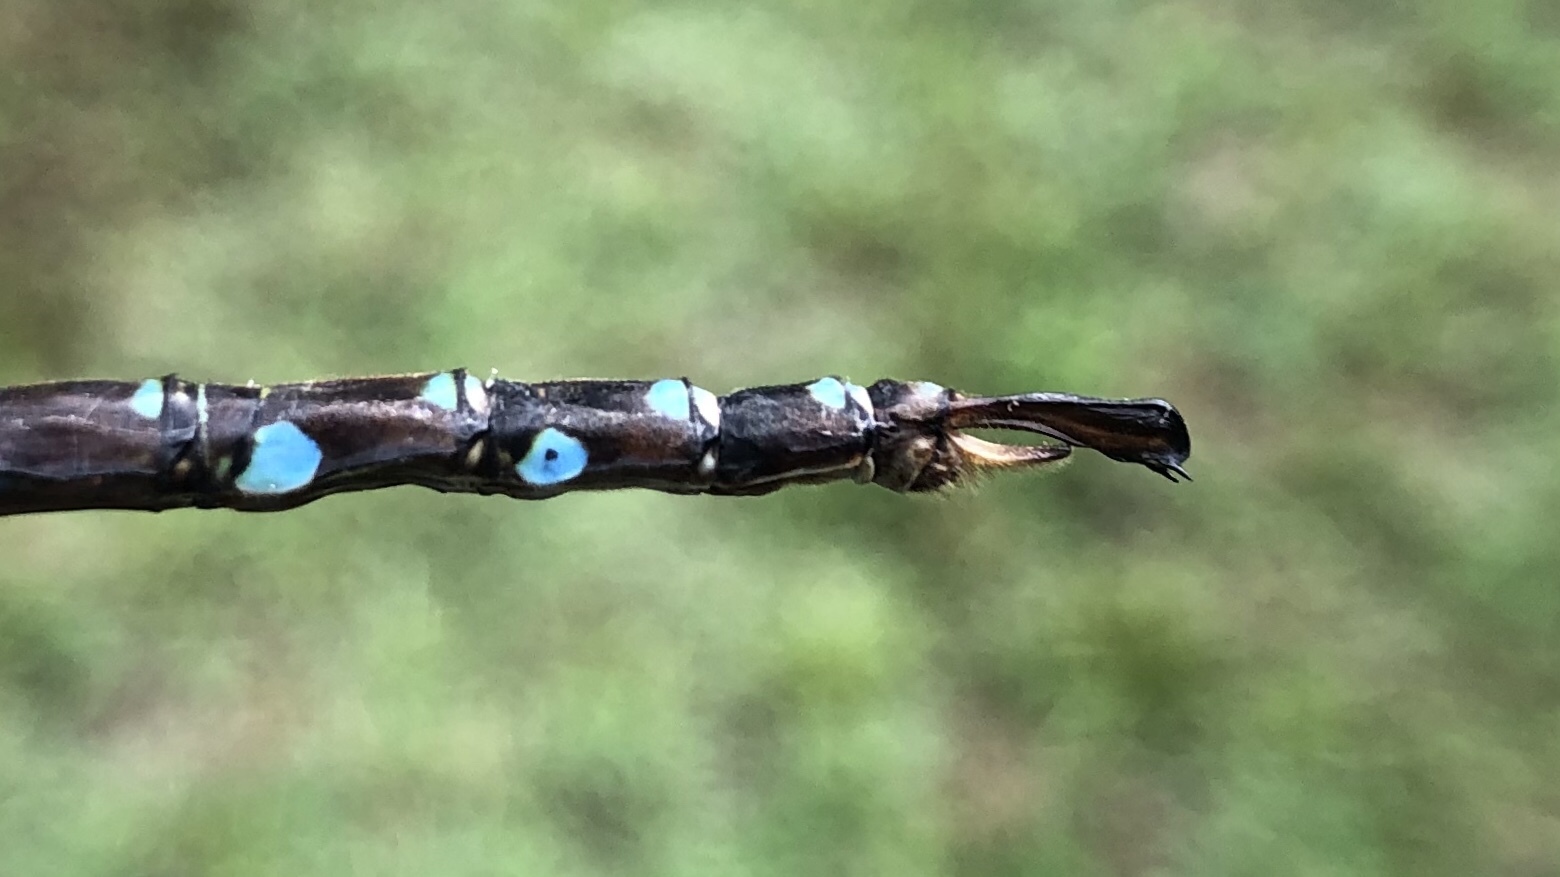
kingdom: Animalia
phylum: Arthropoda
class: Insecta
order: Odonata
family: Aeshnidae
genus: Aeshna
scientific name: Aeshna umbrosa
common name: Shadow darner
